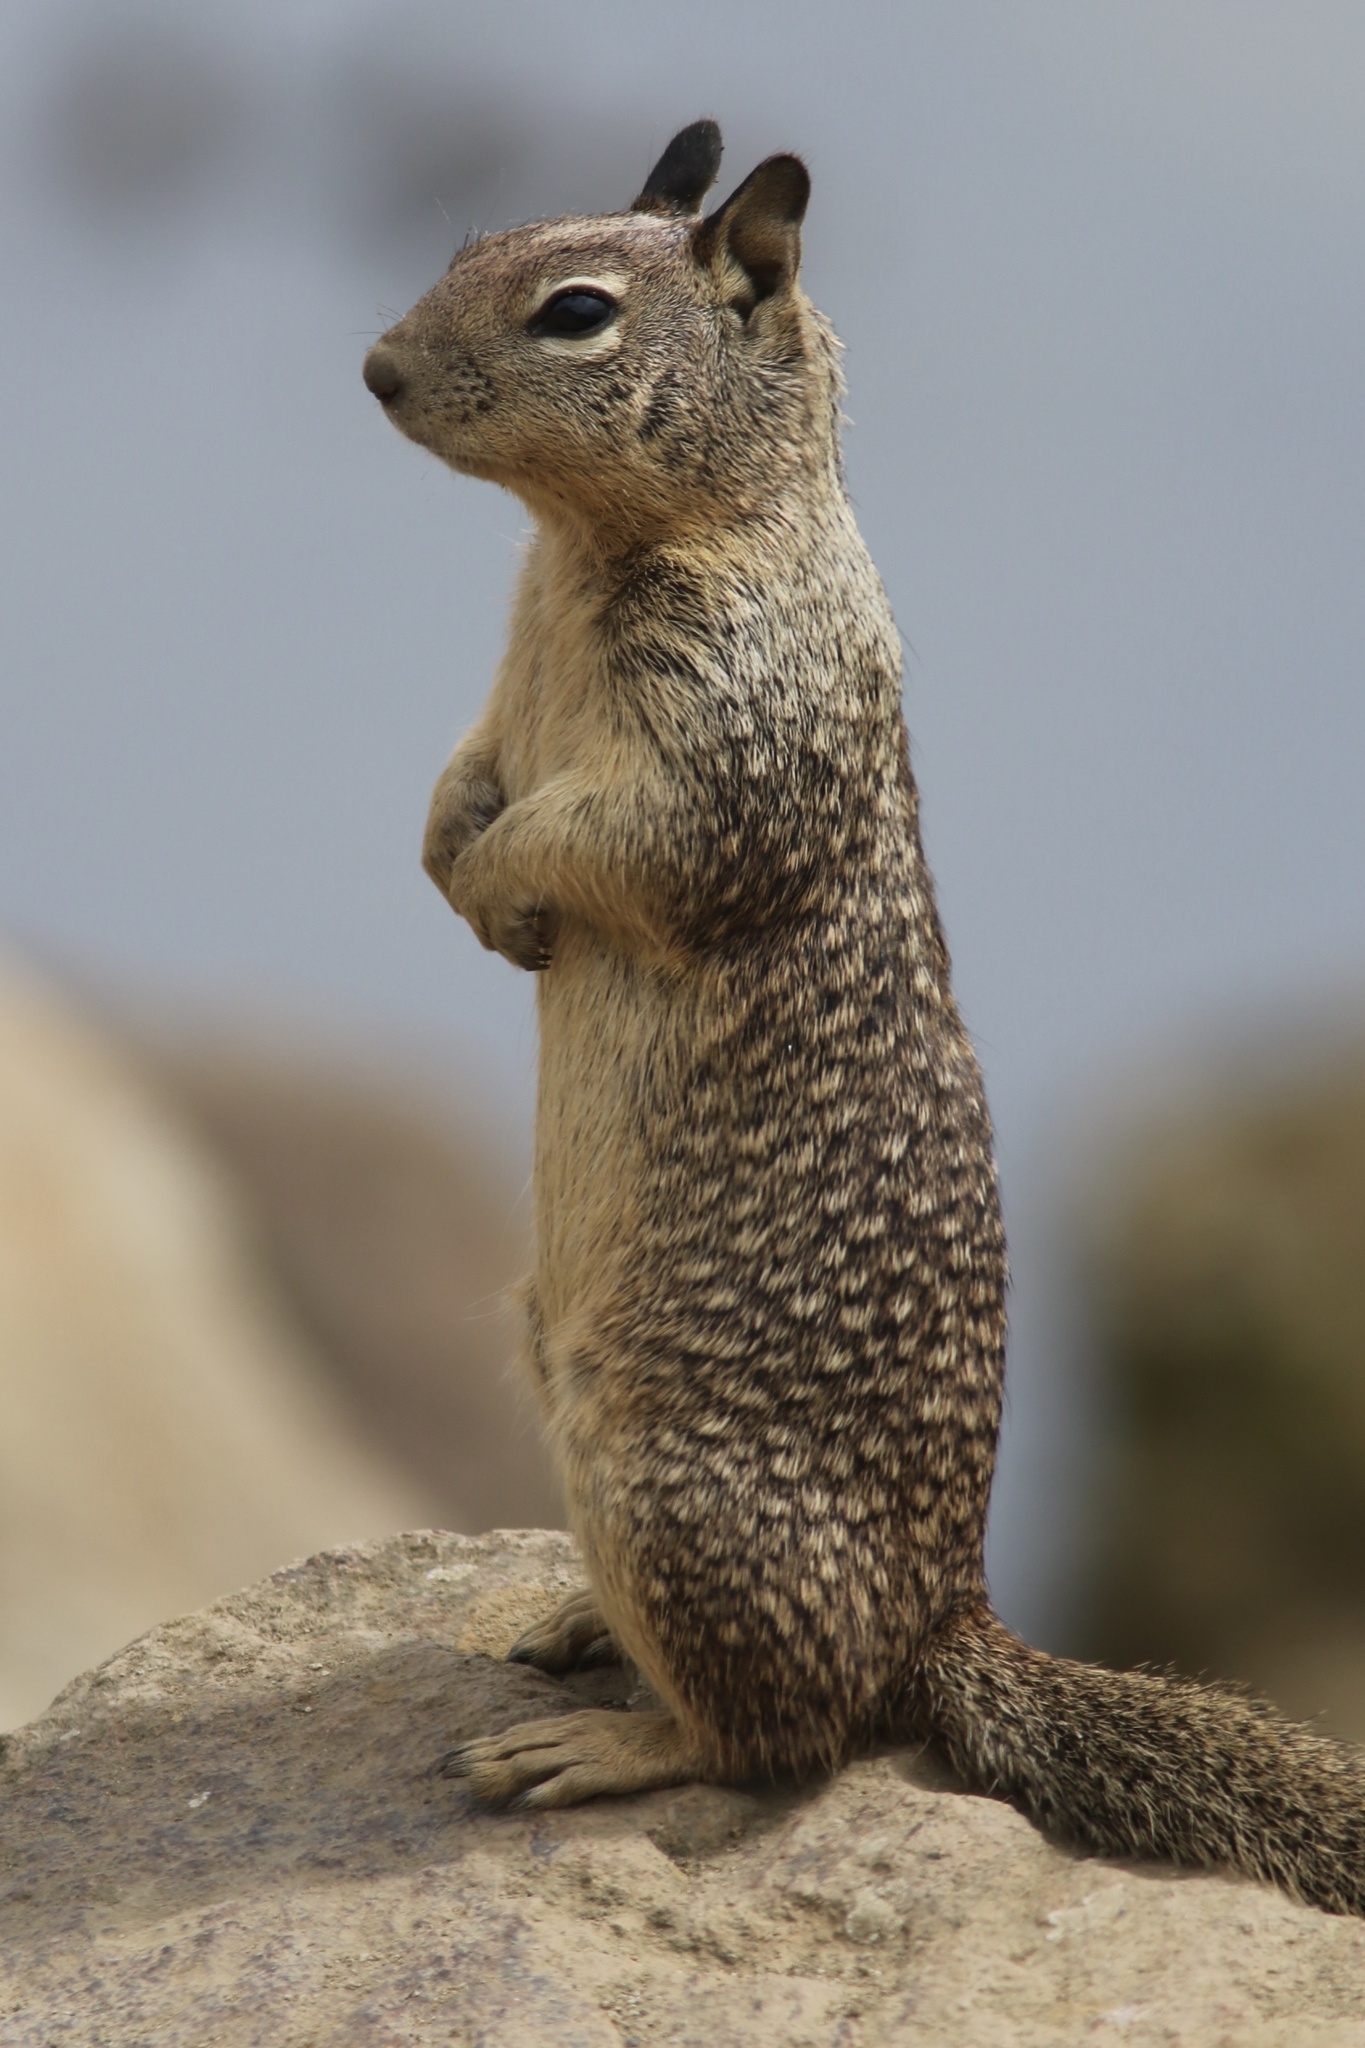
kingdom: Animalia
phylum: Chordata
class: Mammalia
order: Rodentia
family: Sciuridae
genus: Otospermophilus
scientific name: Otospermophilus beecheyi
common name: California ground squirrel
